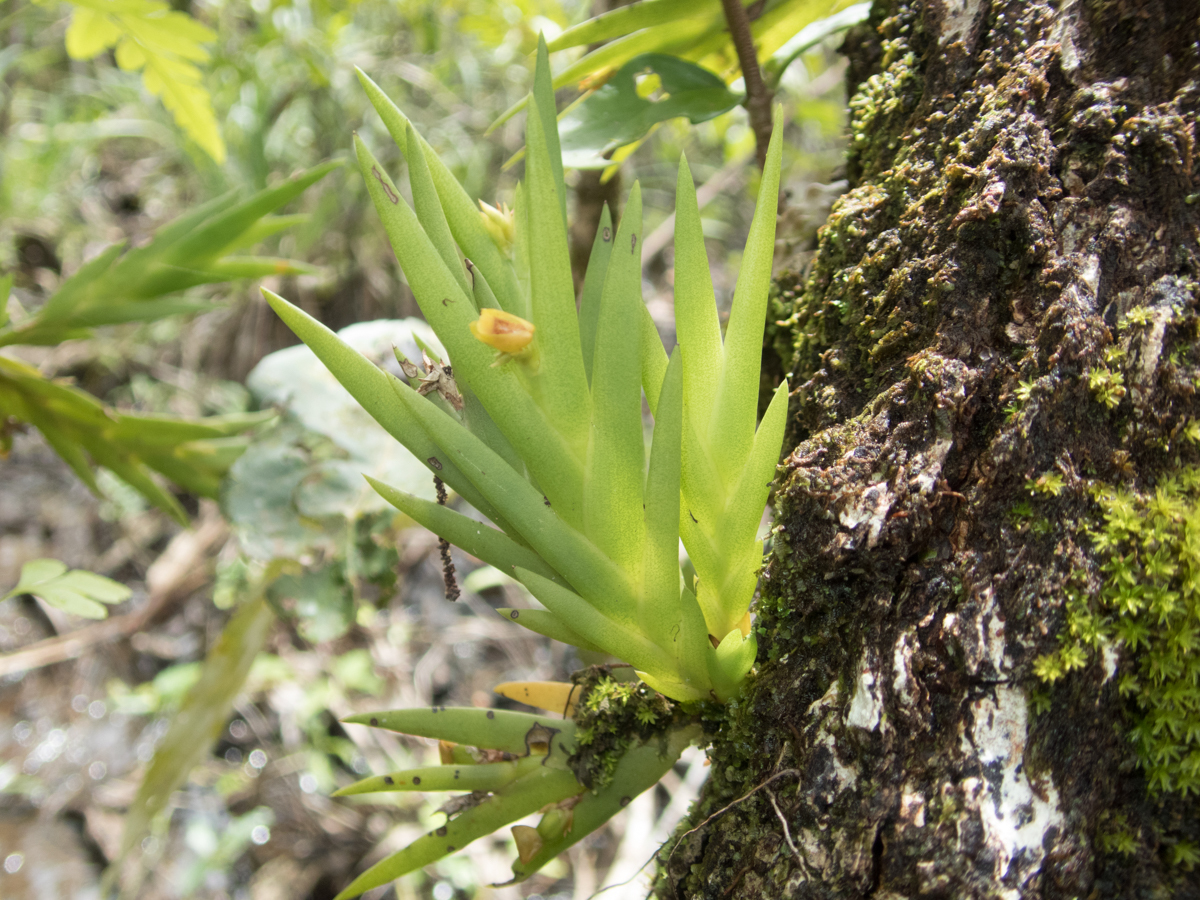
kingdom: Plantae
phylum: Tracheophyta
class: Liliopsida
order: Asparagales
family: Orchidaceae
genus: Oxystophyllum
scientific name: Oxystophyllum carnosum
